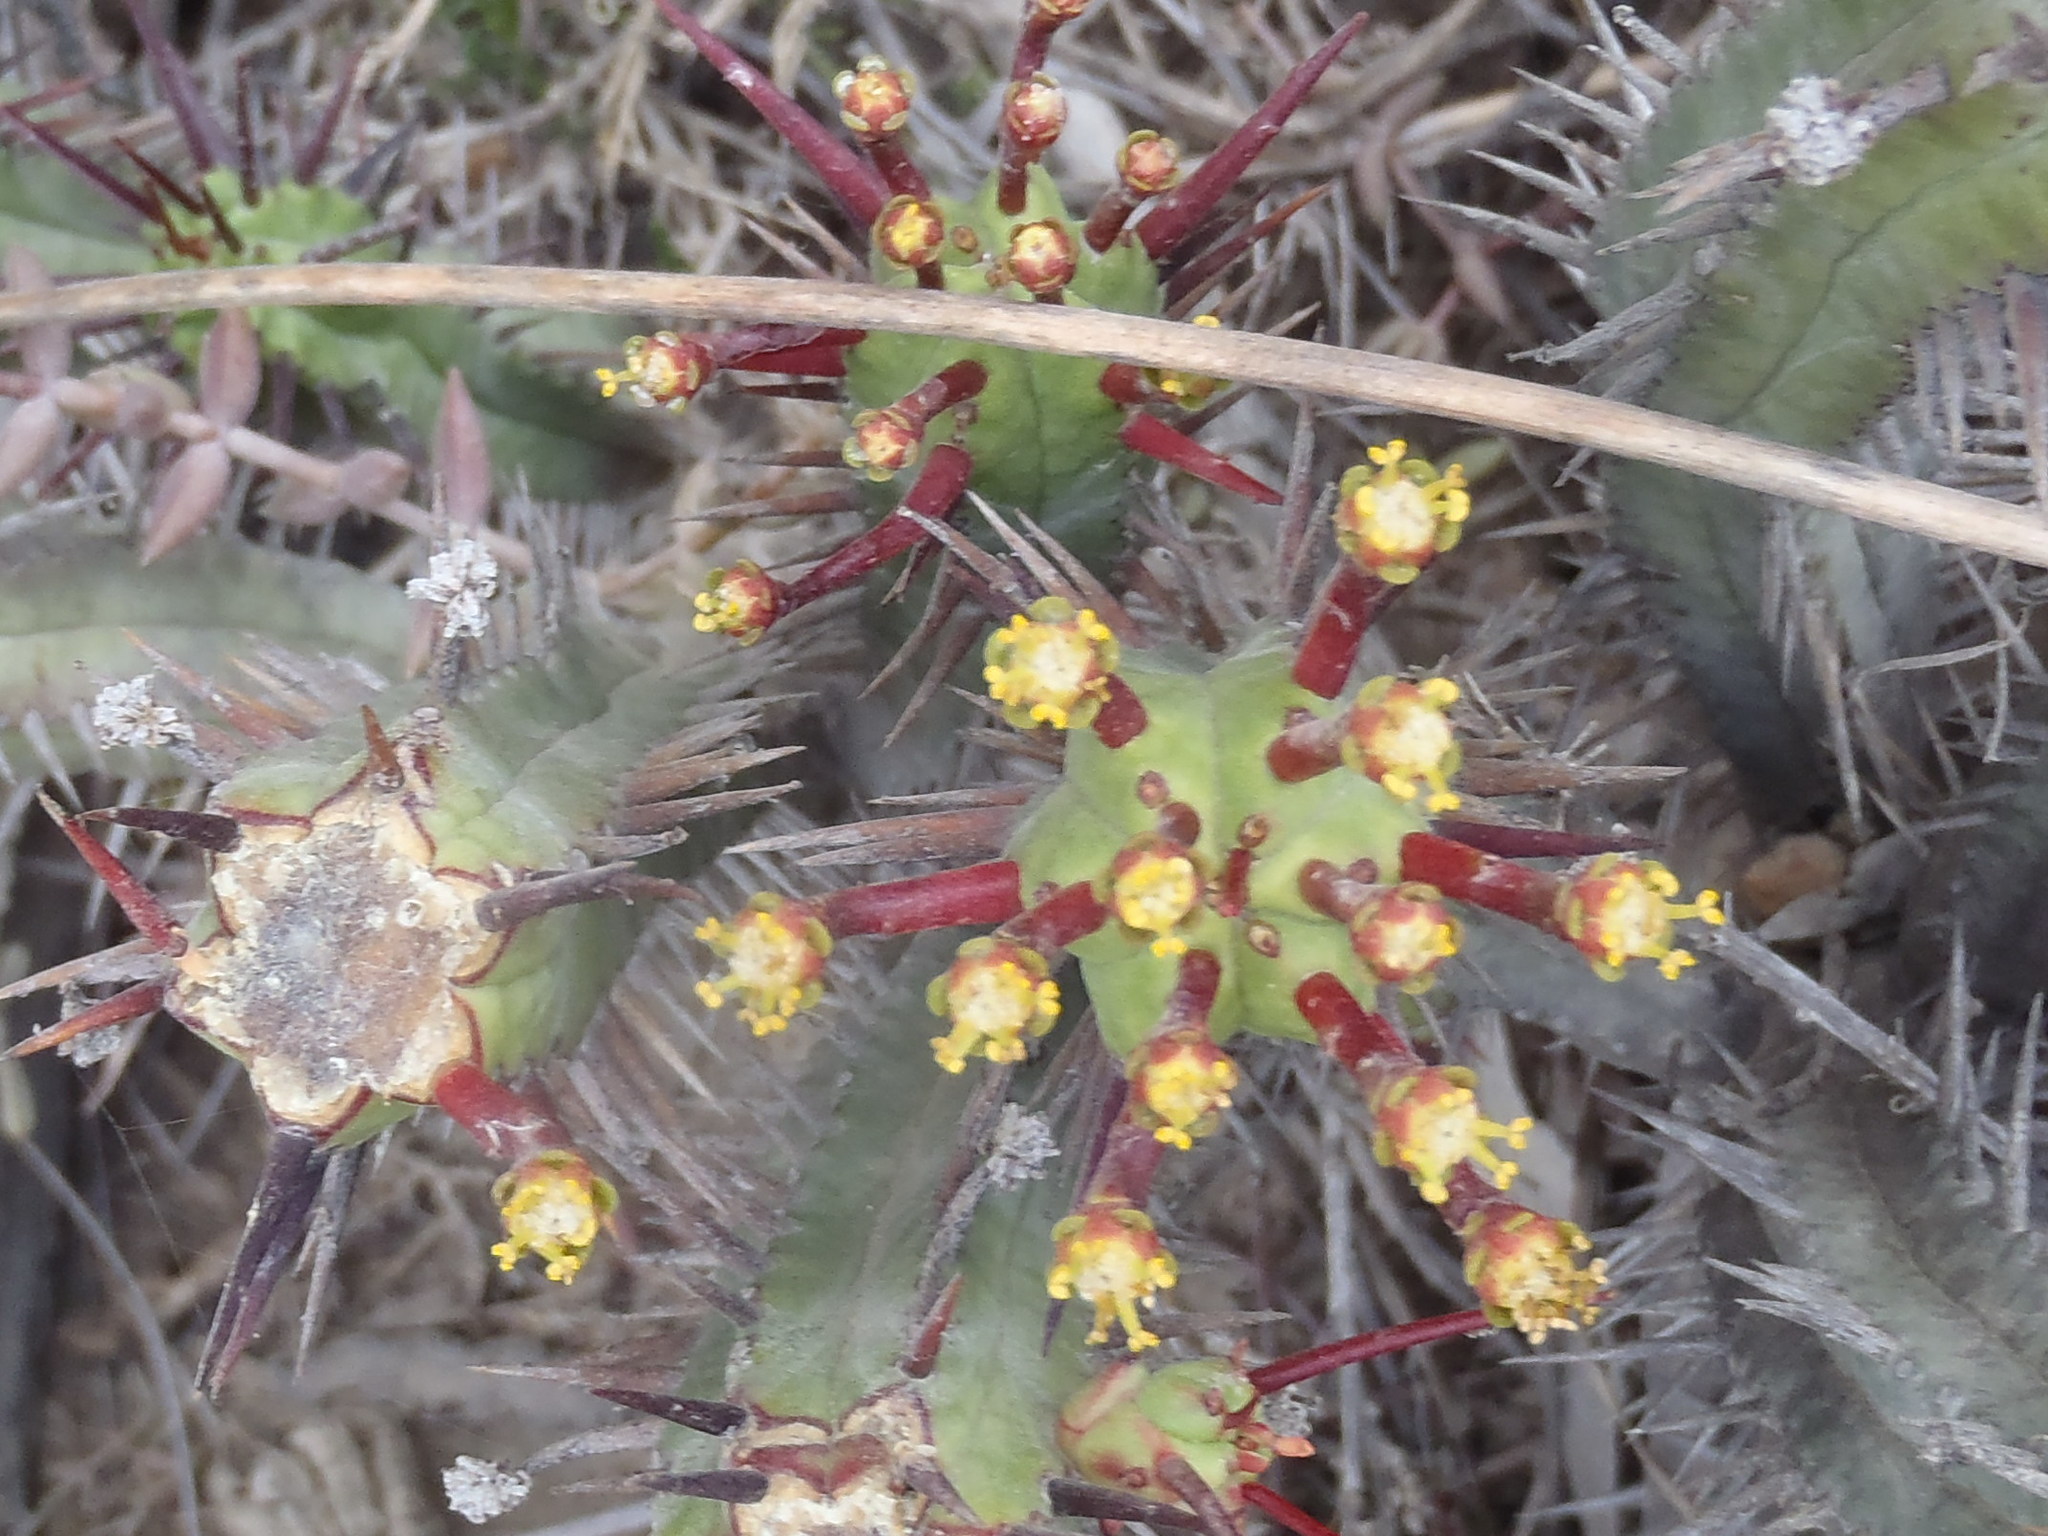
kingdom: Plantae
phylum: Tracheophyta
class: Magnoliopsida
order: Malpighiales
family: Euphorbiaceae
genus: Euphorbia
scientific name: Euphorbia heptagona
